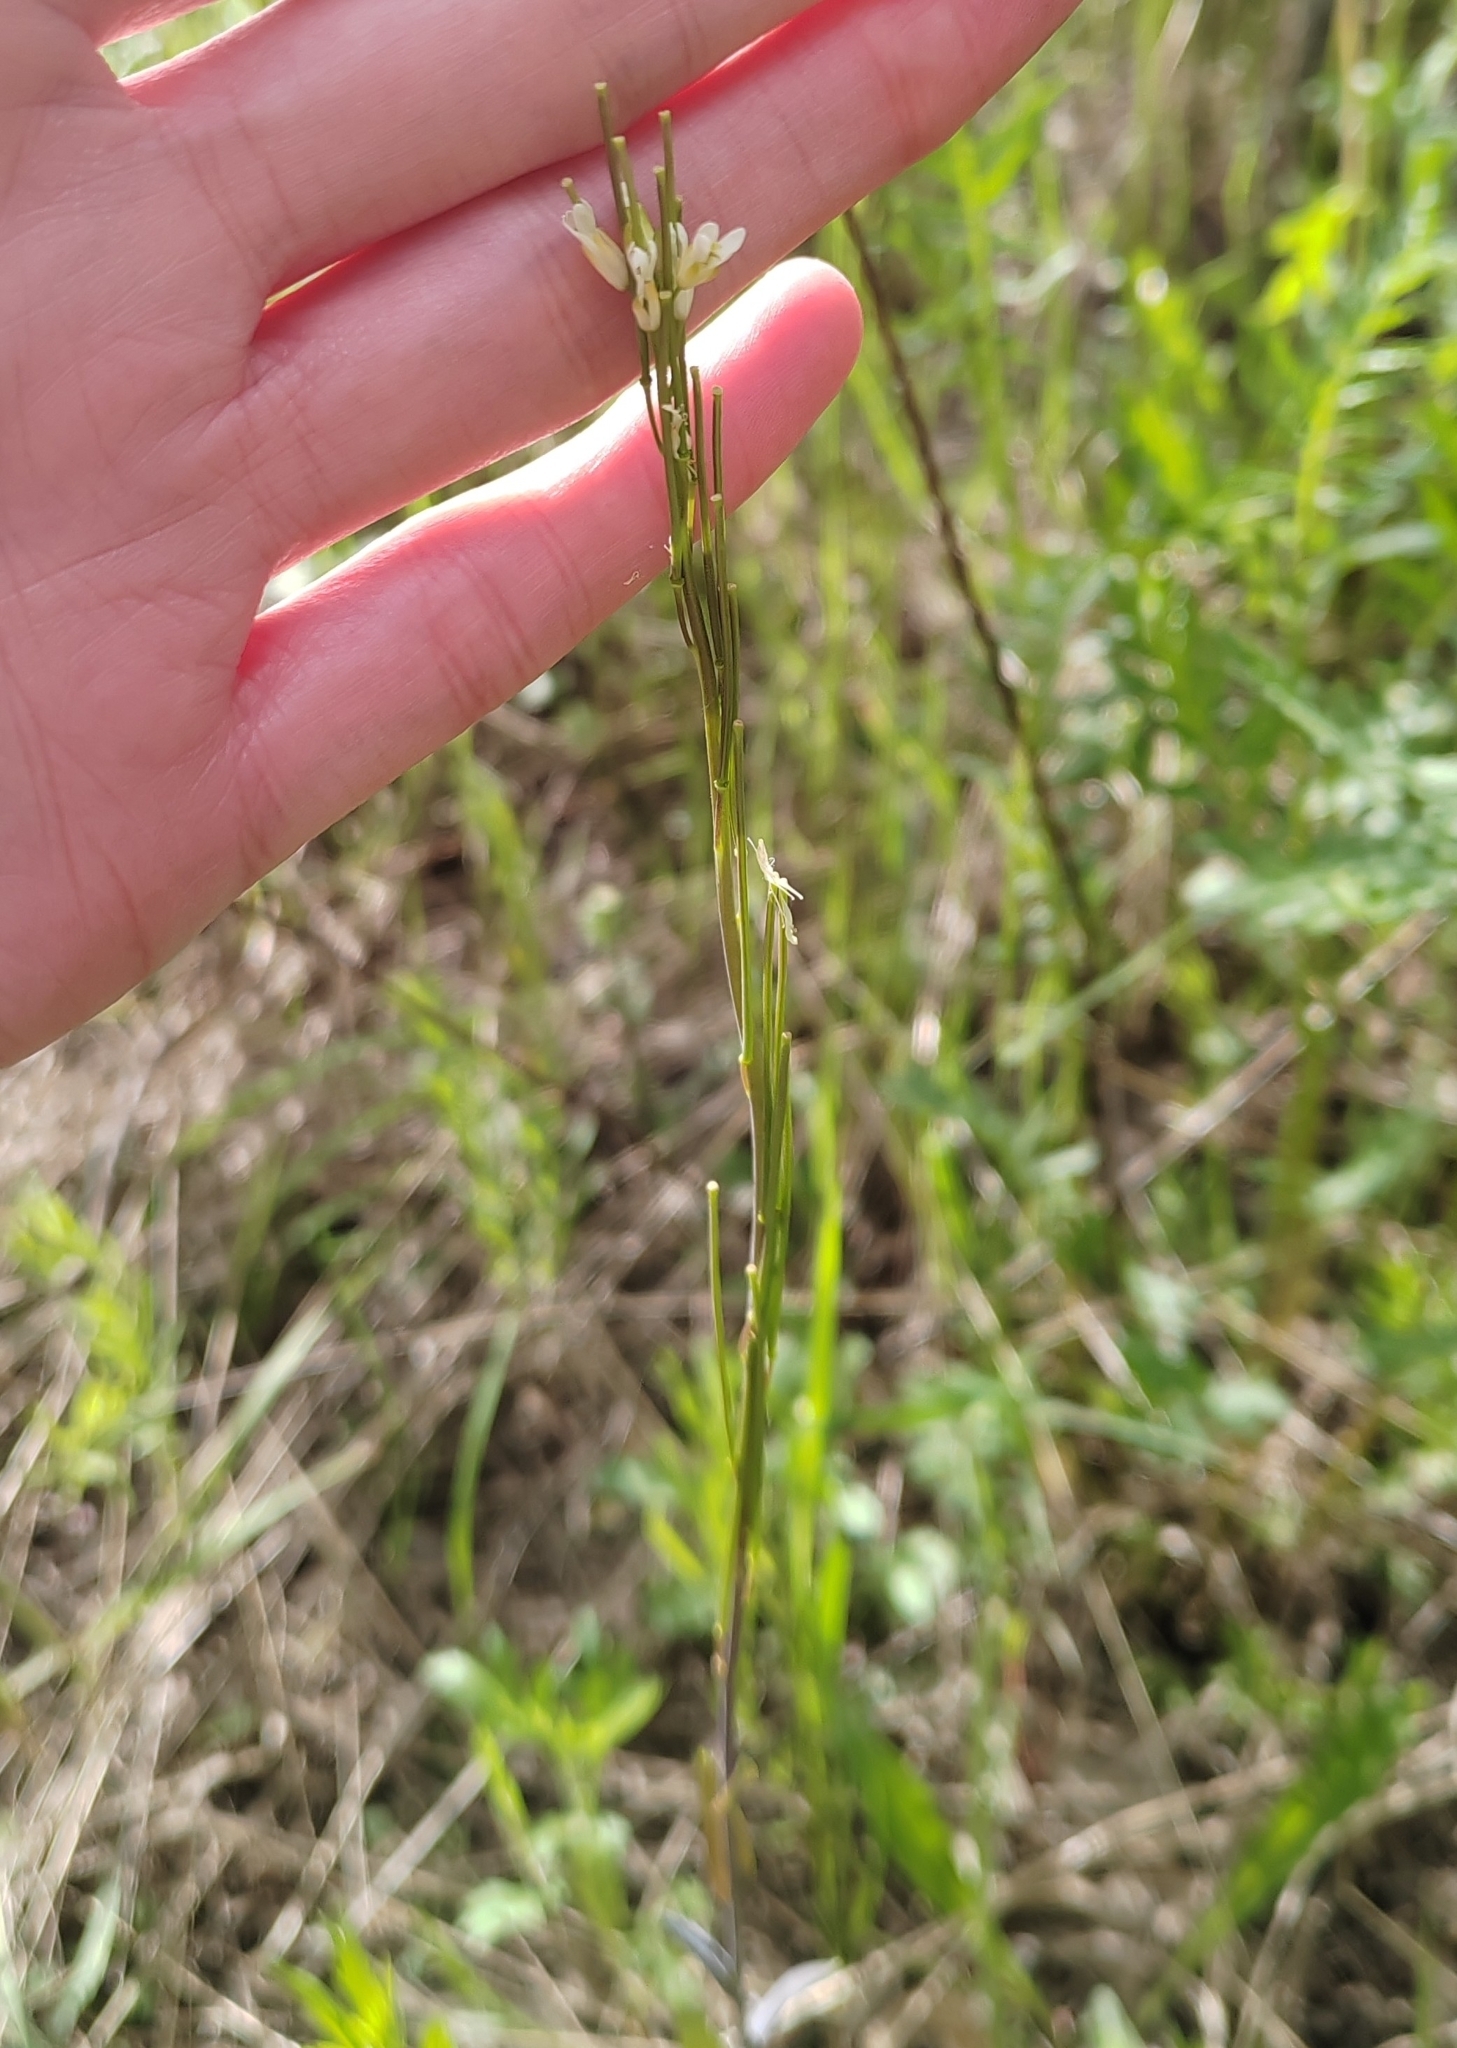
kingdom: Plantae
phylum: Tracheophyta
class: Magnoliopsida
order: Brassicales
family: Brassicaceae
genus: Turritis
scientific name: Turritis glabra
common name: Tower rockcress
